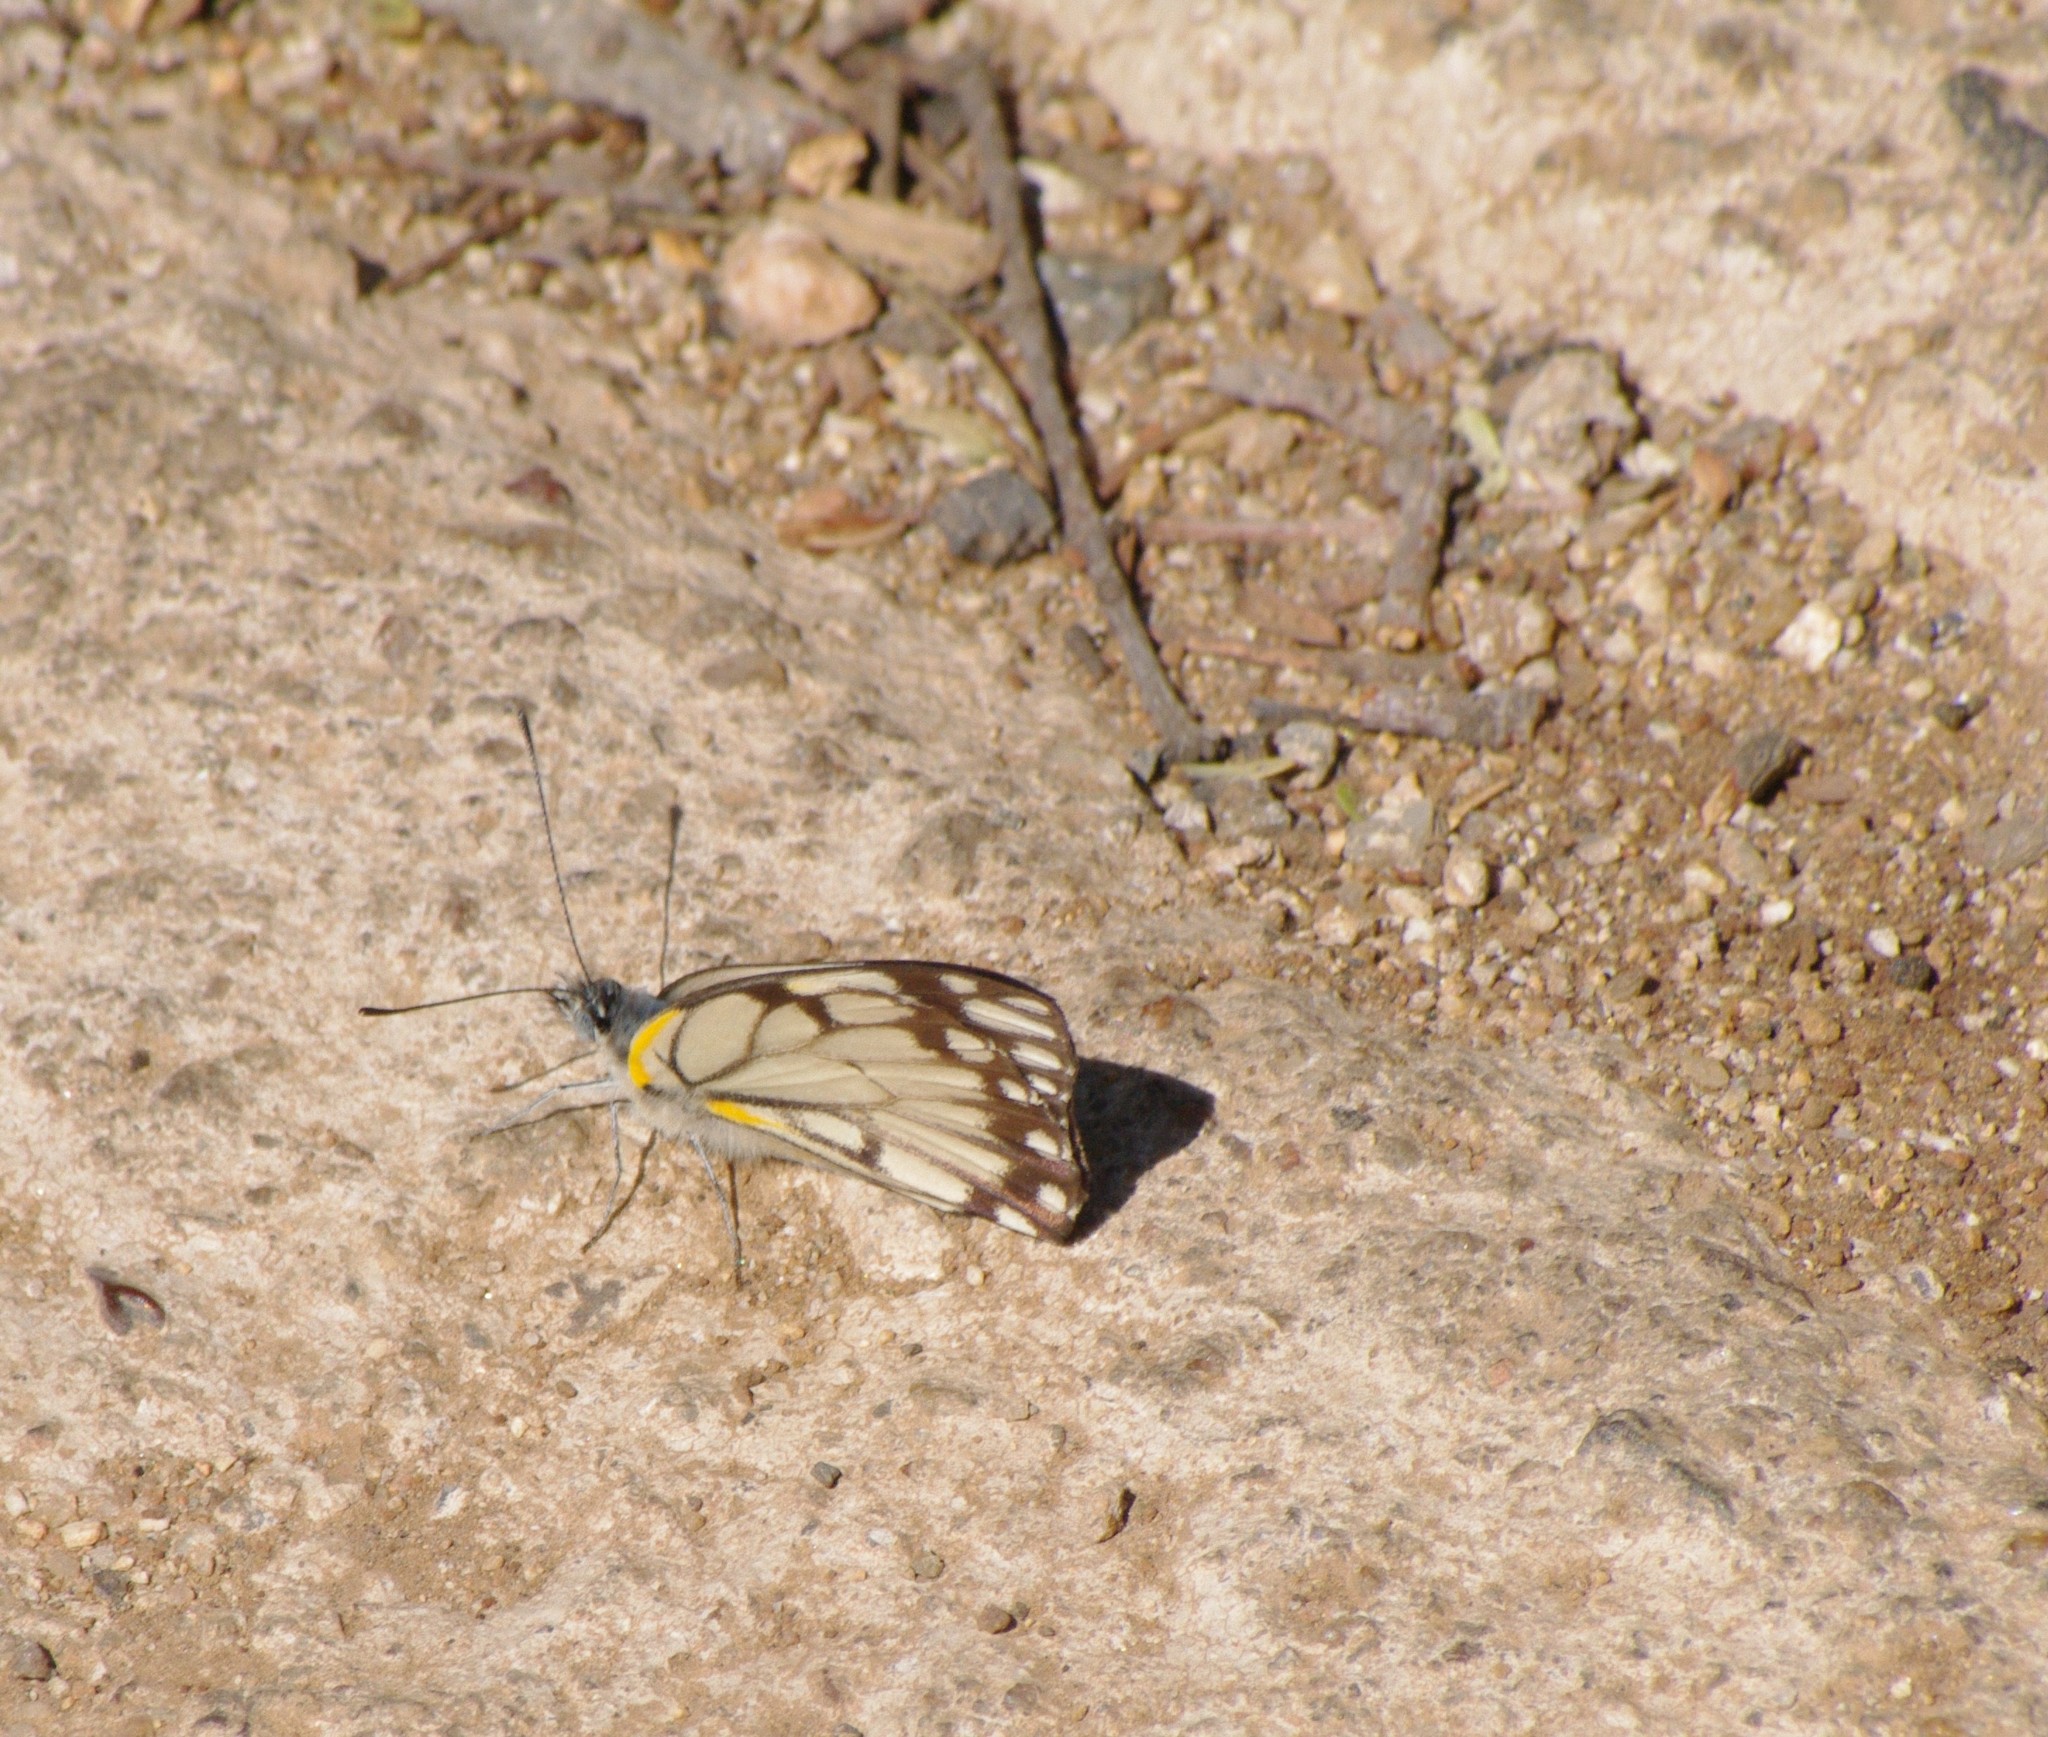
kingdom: Animalia
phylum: Arthropoda
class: Insecta
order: Lepidoptera
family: Pieridae
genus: Belenois
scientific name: Belenois creona
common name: African caper white
